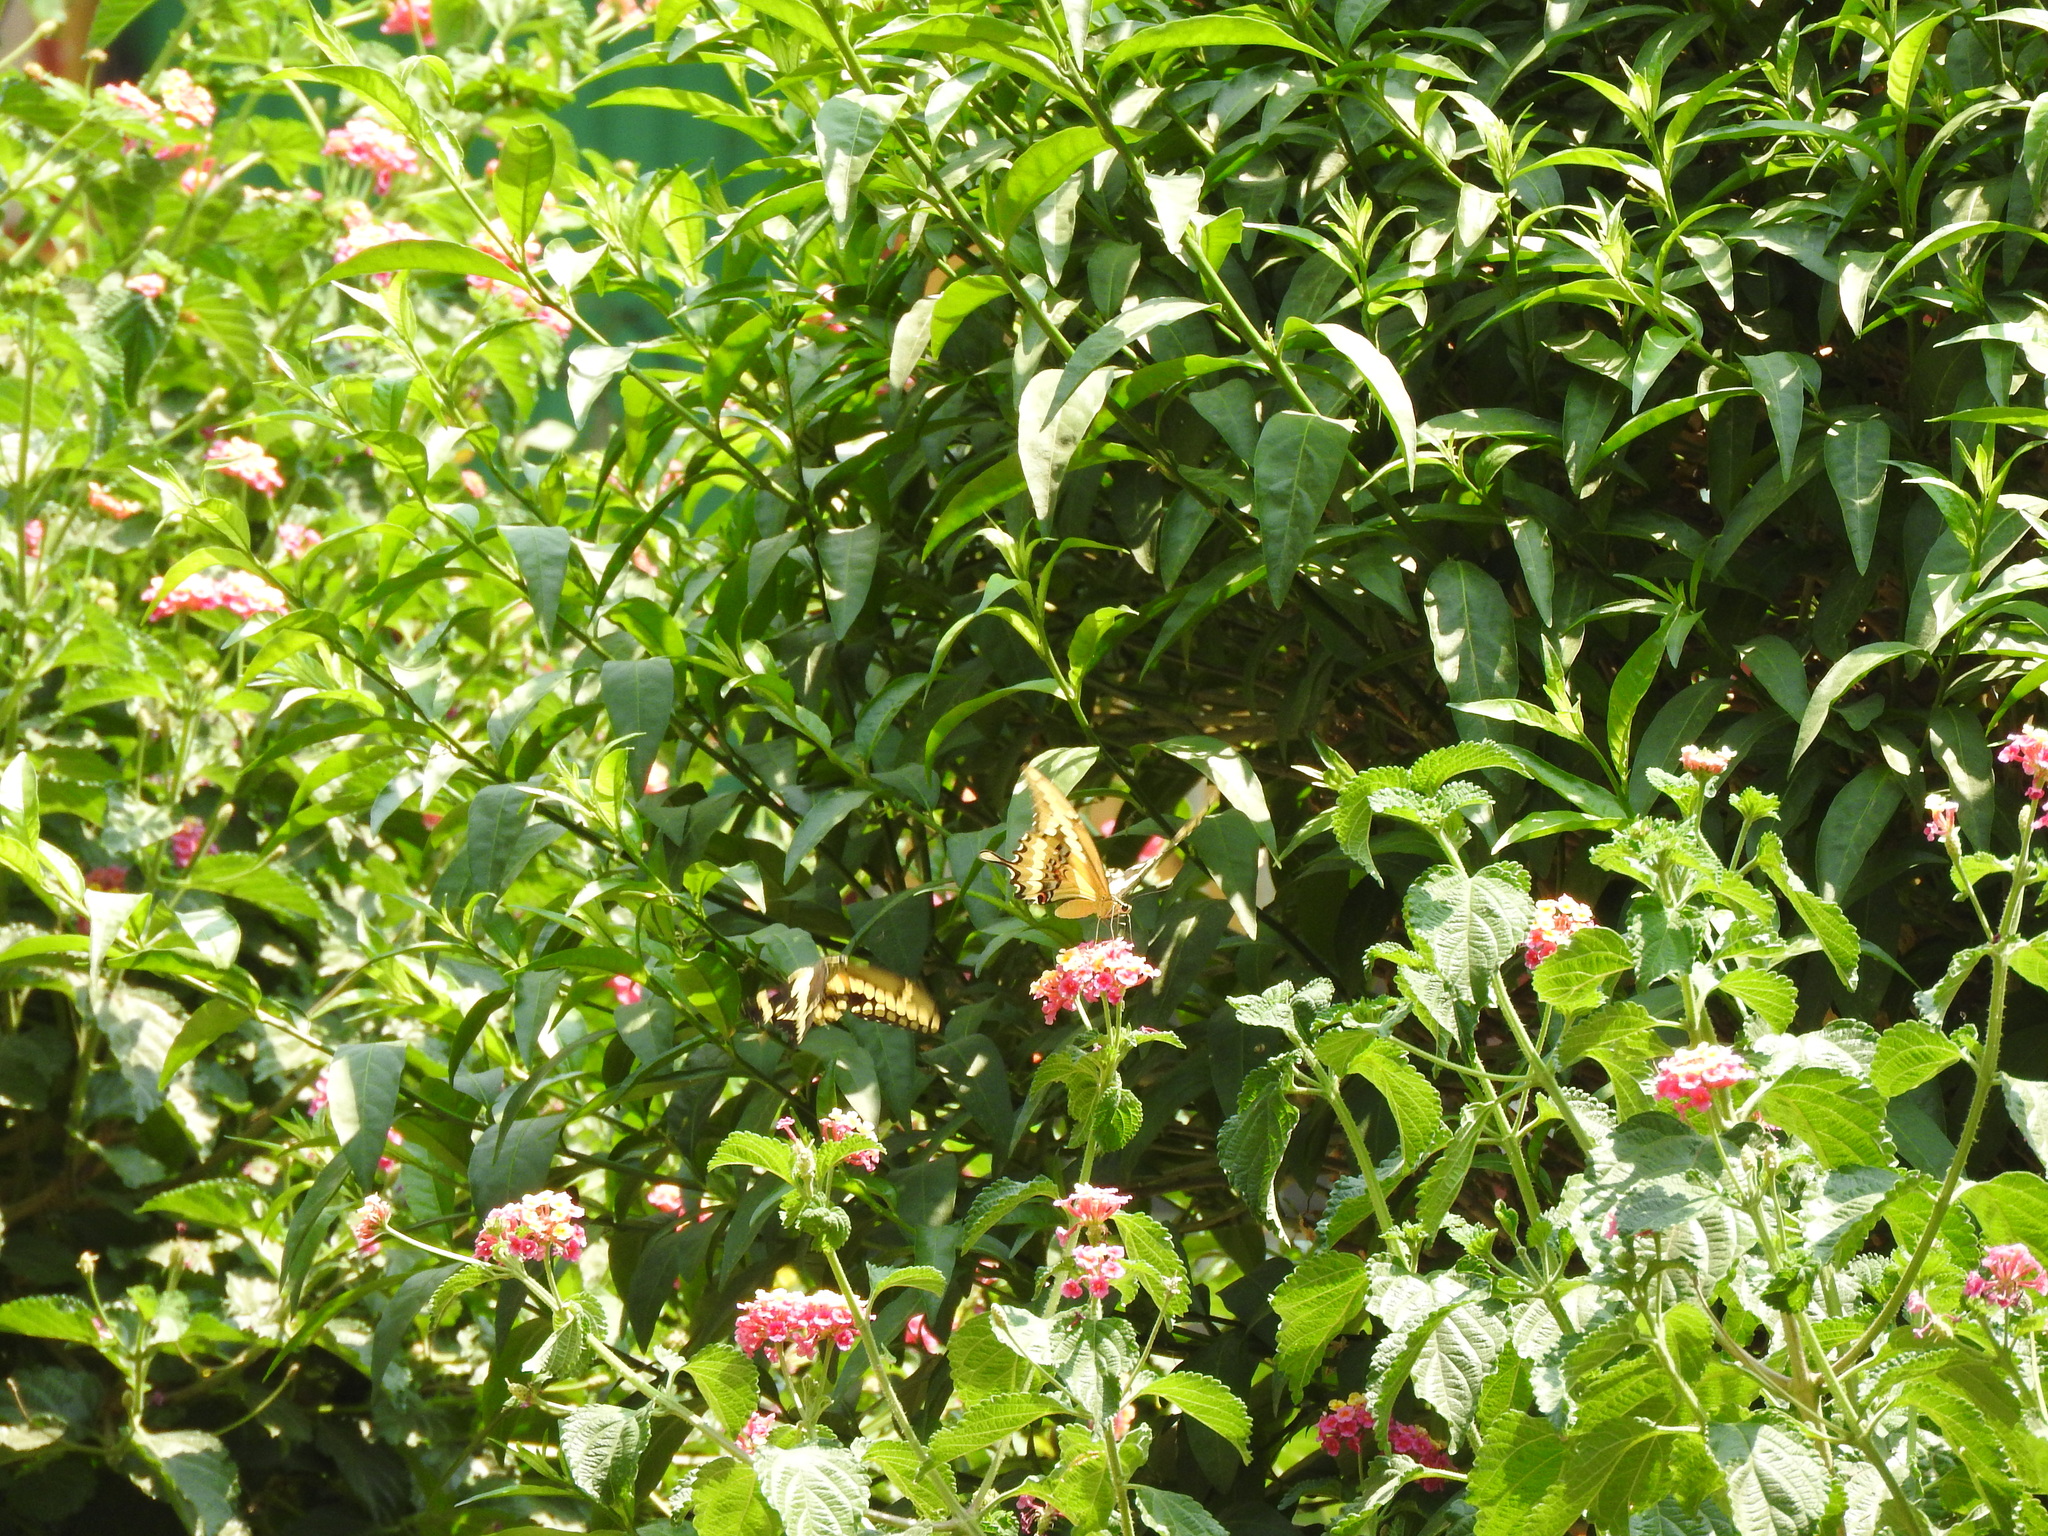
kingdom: Animalia
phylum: Arthropoda
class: Insecta
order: Lepidoptera
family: Papilionidae
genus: Papilio
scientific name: Papilio rumiko
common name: Western giant swallowtail
